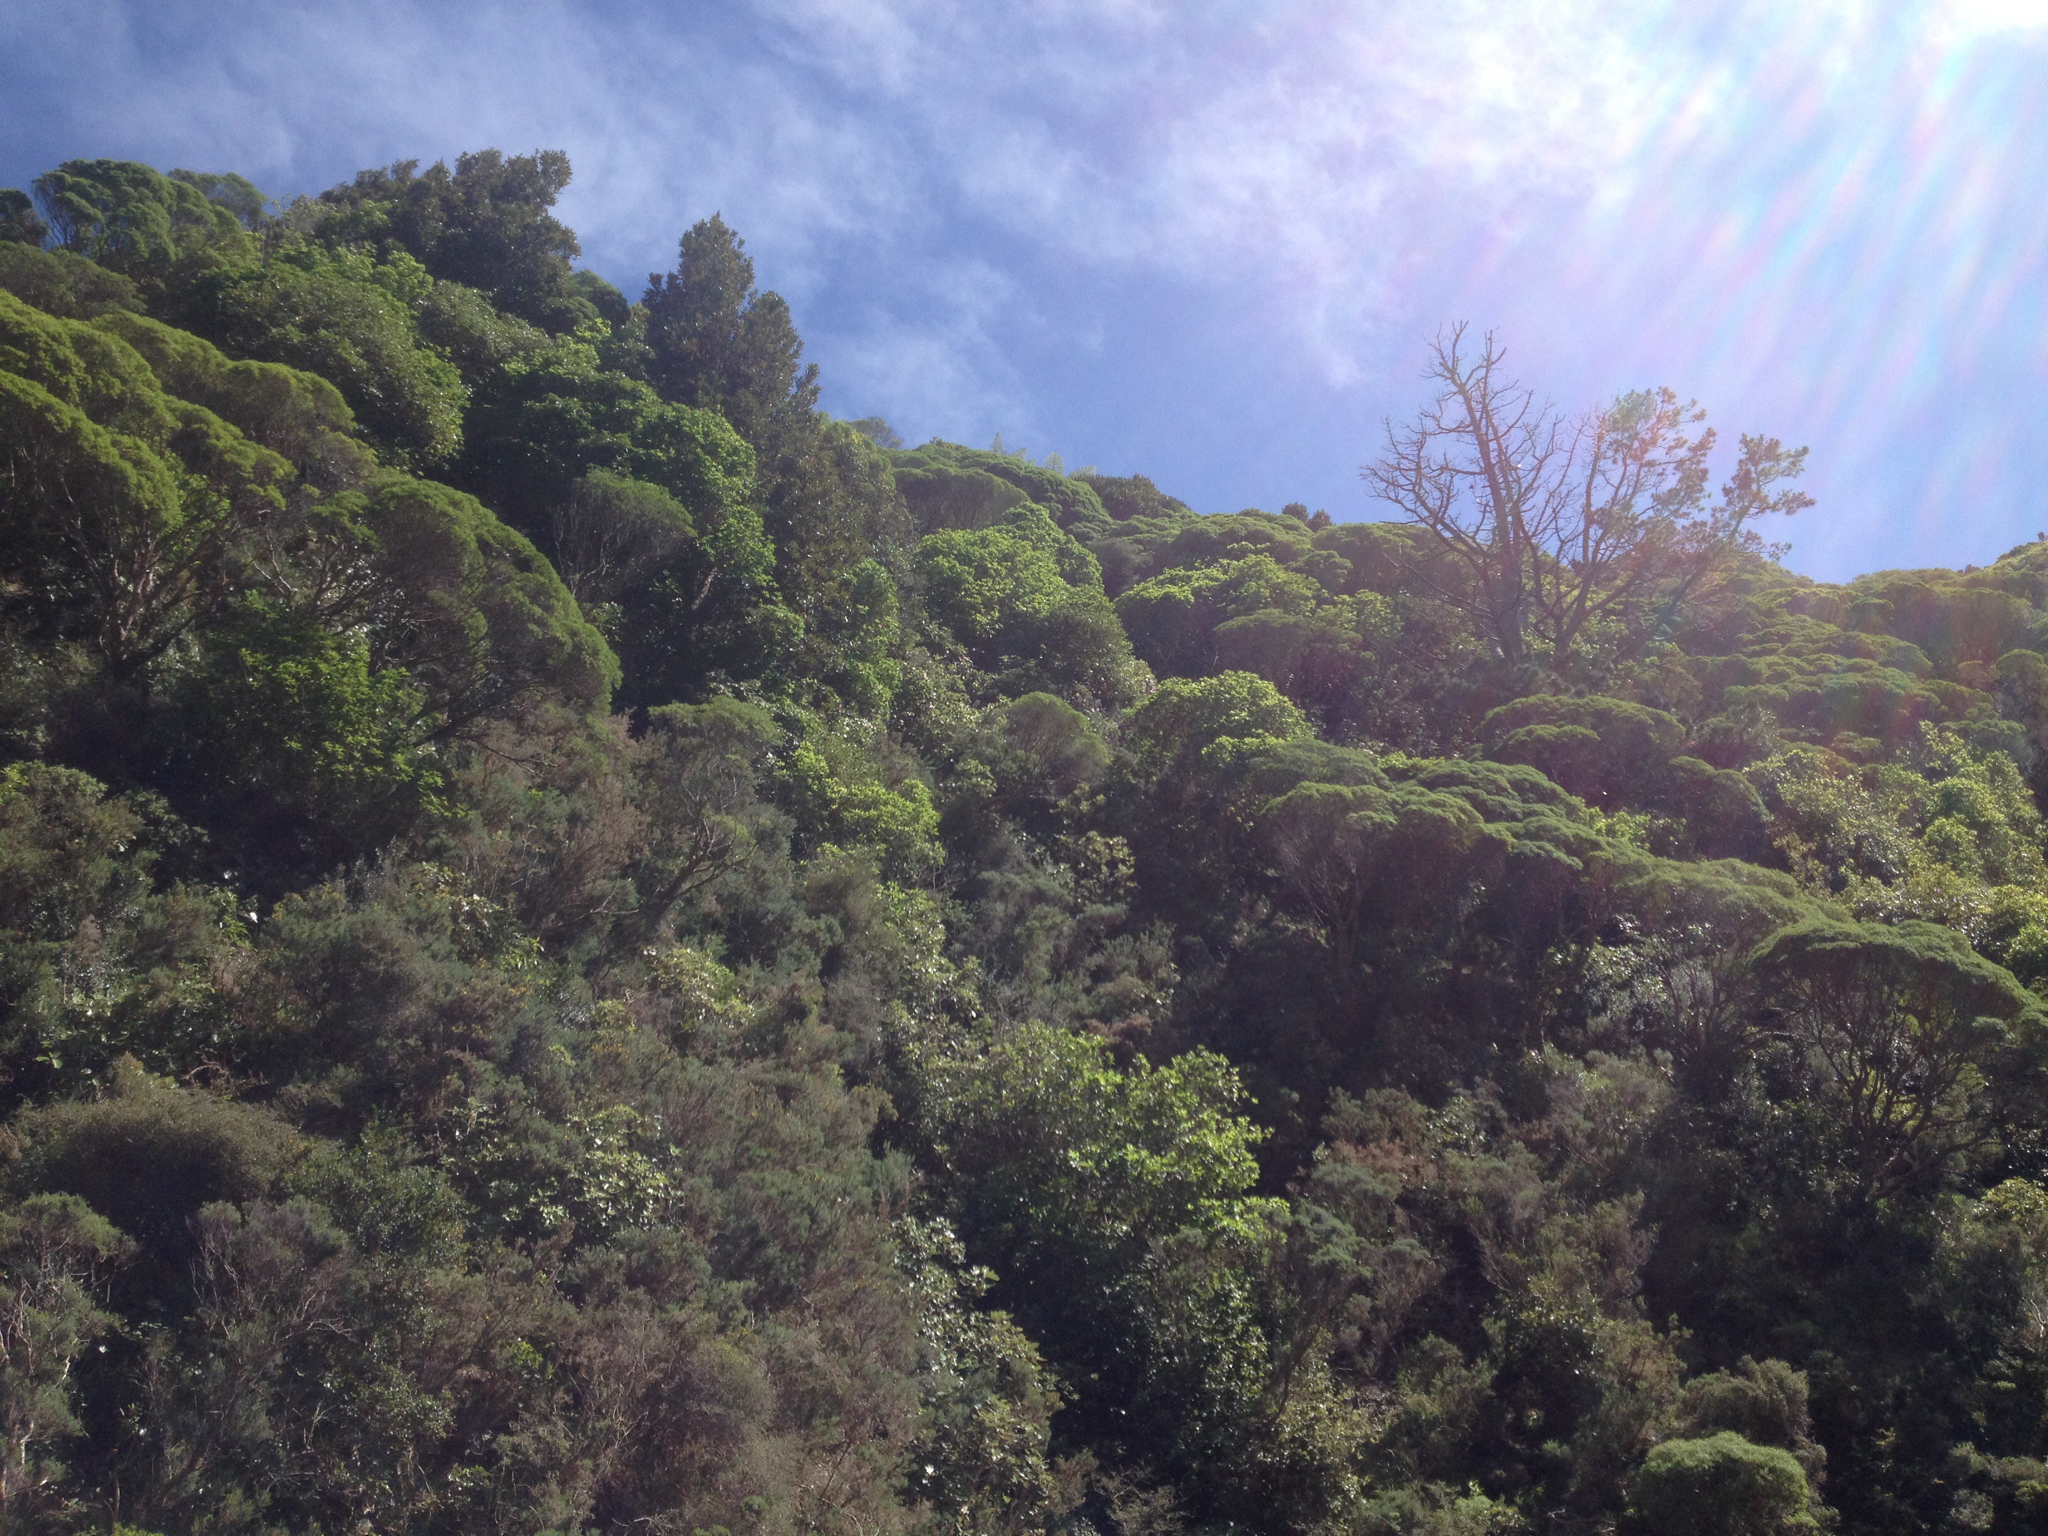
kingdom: Plantae
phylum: Tracheophyta
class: Magnoliopsida
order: Proteales
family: Proteaceae
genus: Knightia
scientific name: Knightia excelsa
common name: New zealand-honeysuckle
